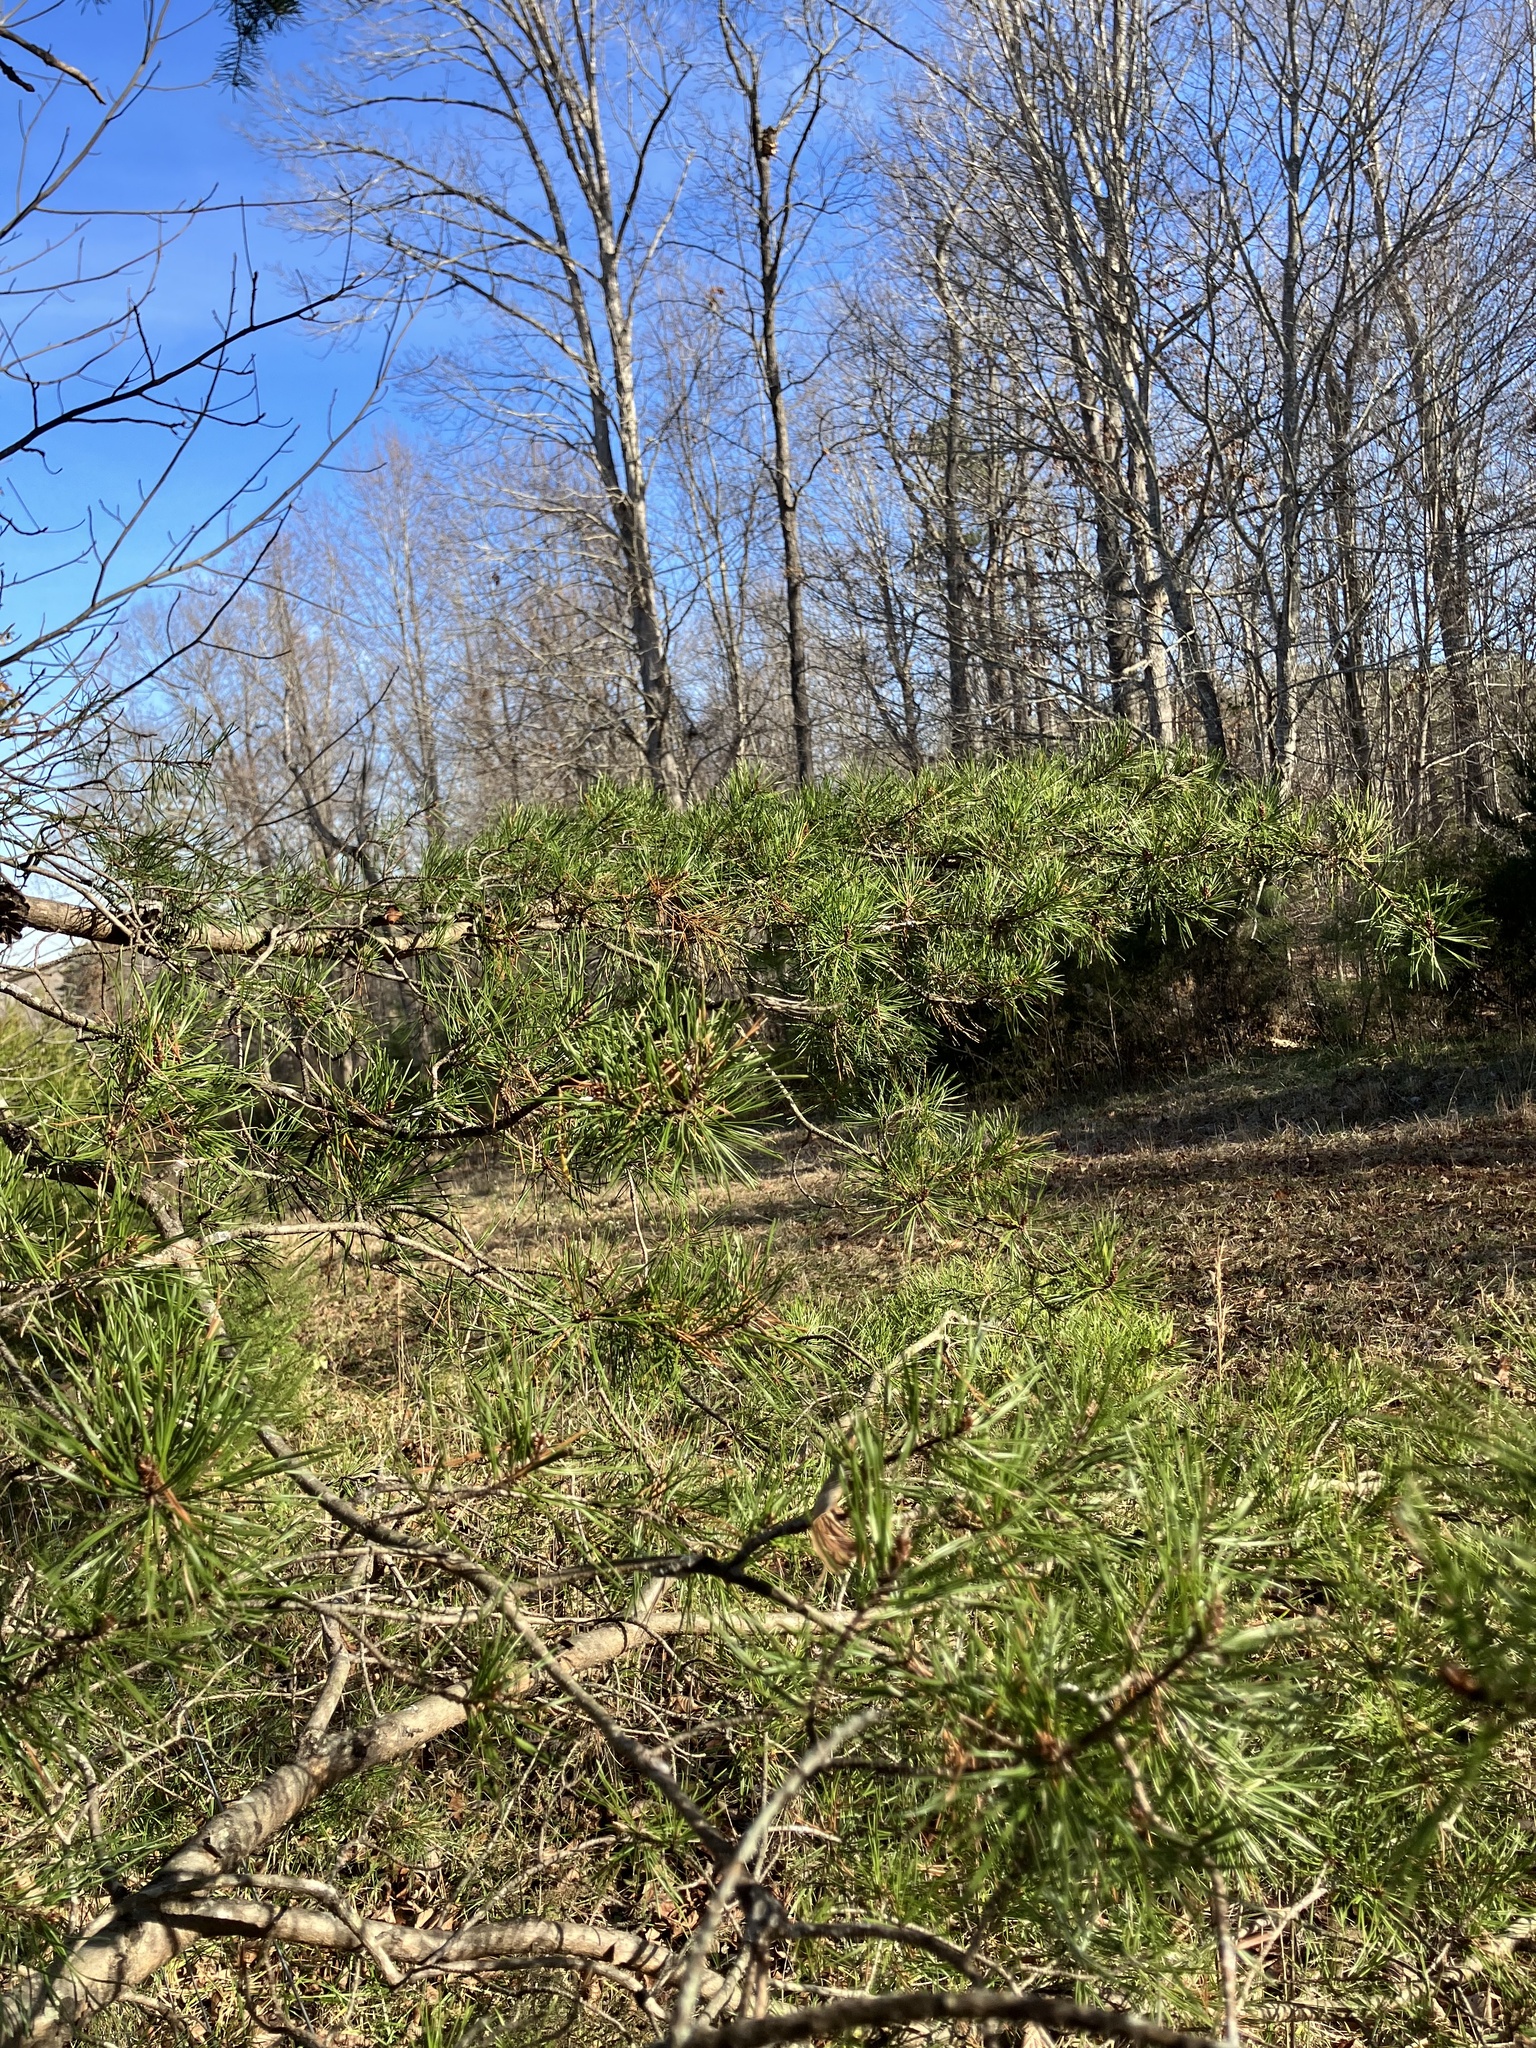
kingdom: Plantae
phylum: Tracheophyta
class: Pinopsida
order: Pinales
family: Pinaceae
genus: Pinus
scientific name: Pinus virginiana
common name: Scrub pine
